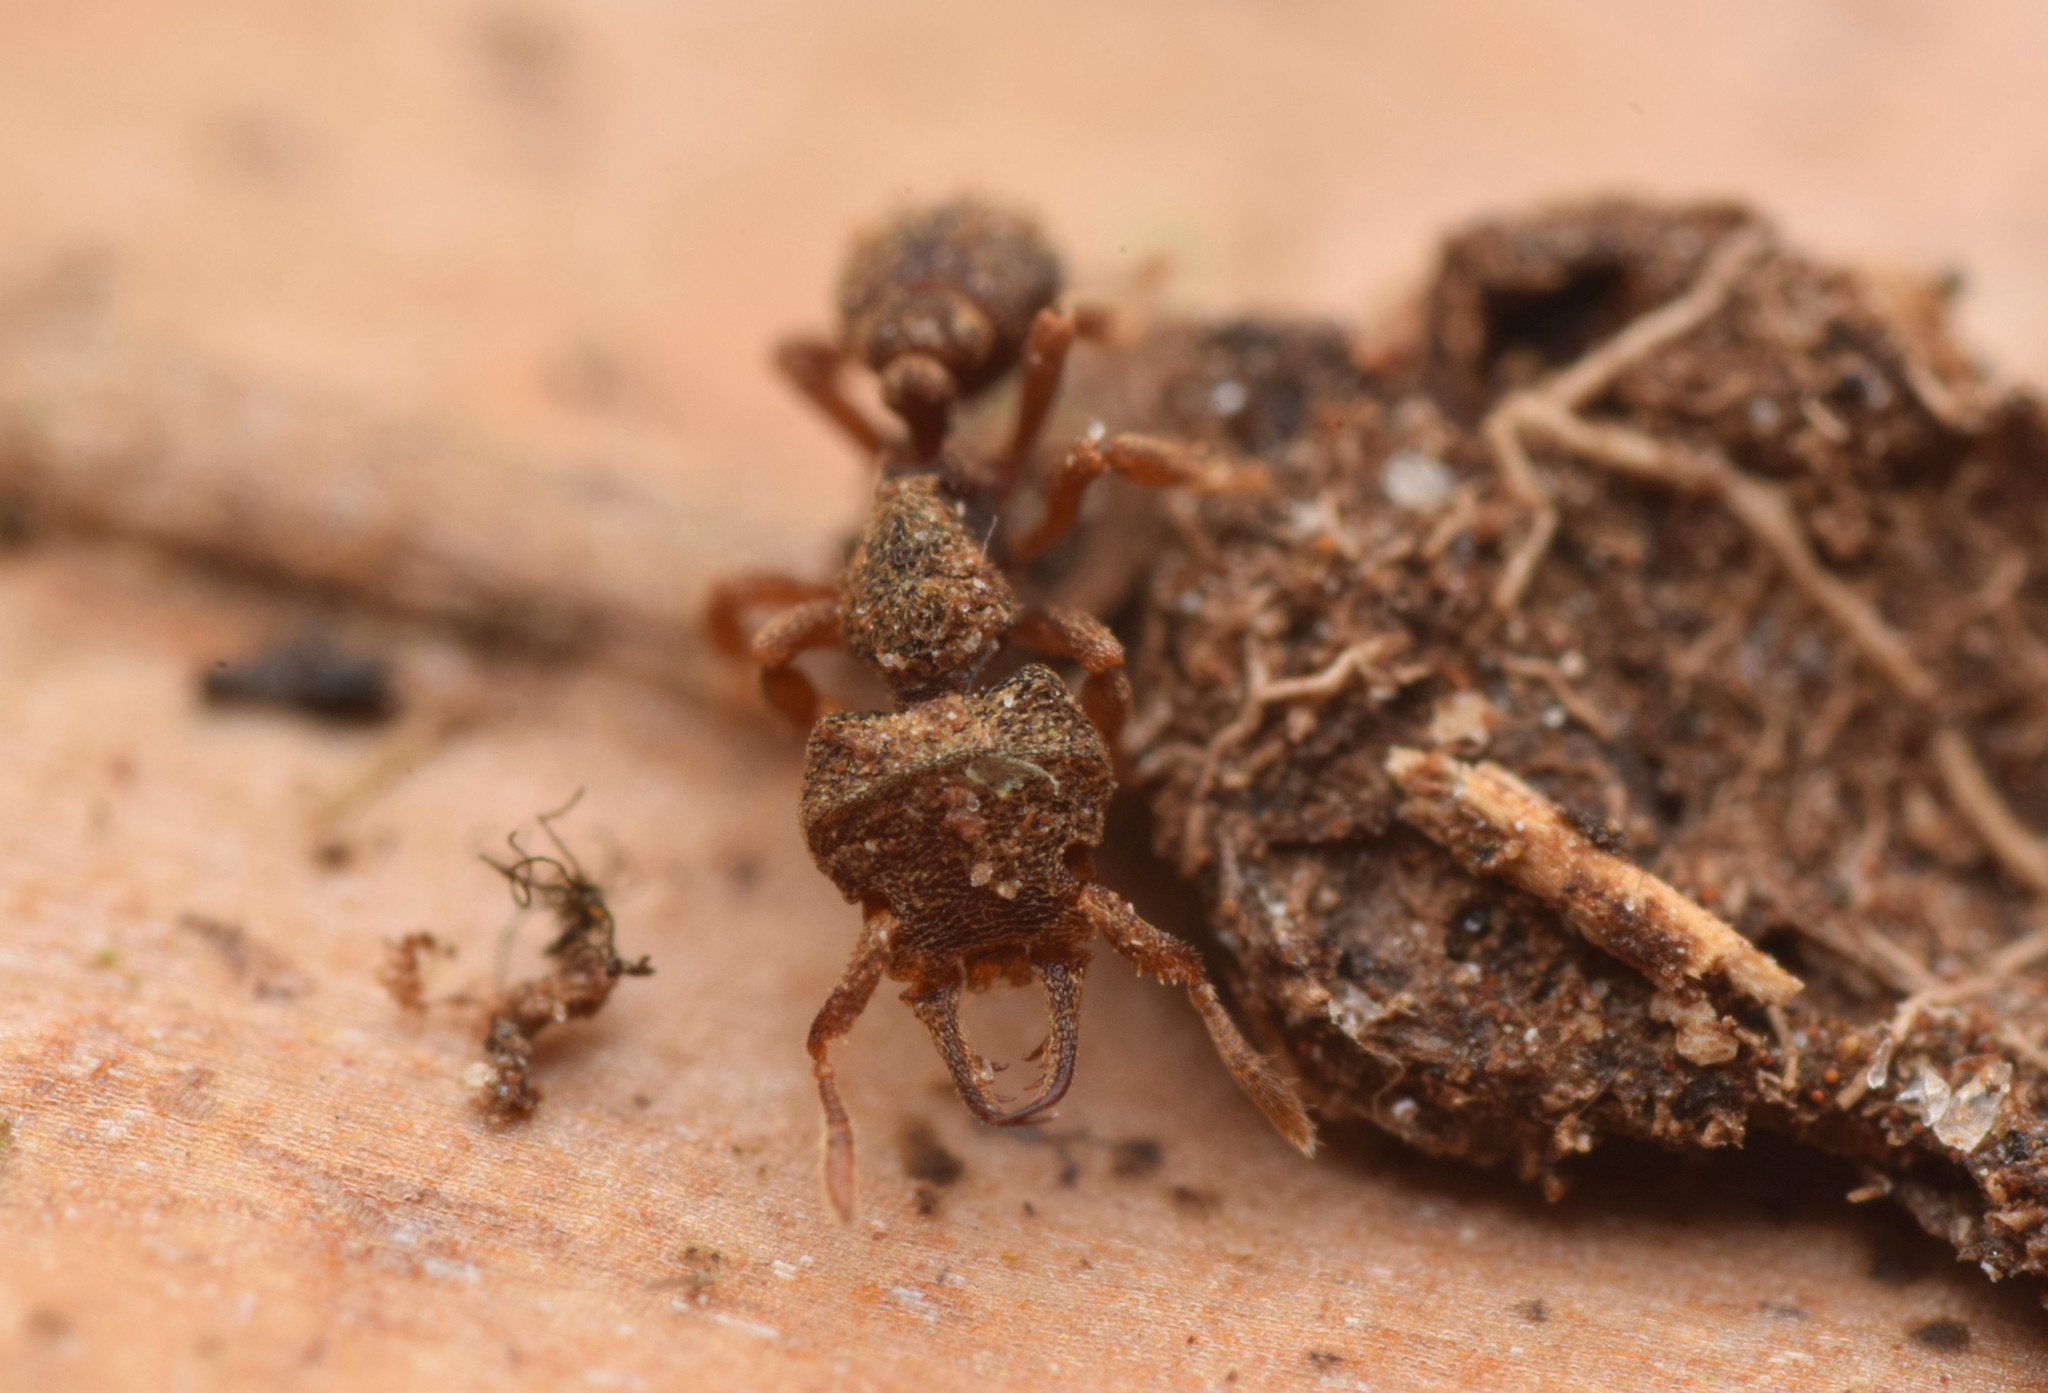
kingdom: Animalia
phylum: Arthropoda
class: Insecta
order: Hymenoptera
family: Formicidae
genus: Protalaridris
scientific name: Protalaridris armata
